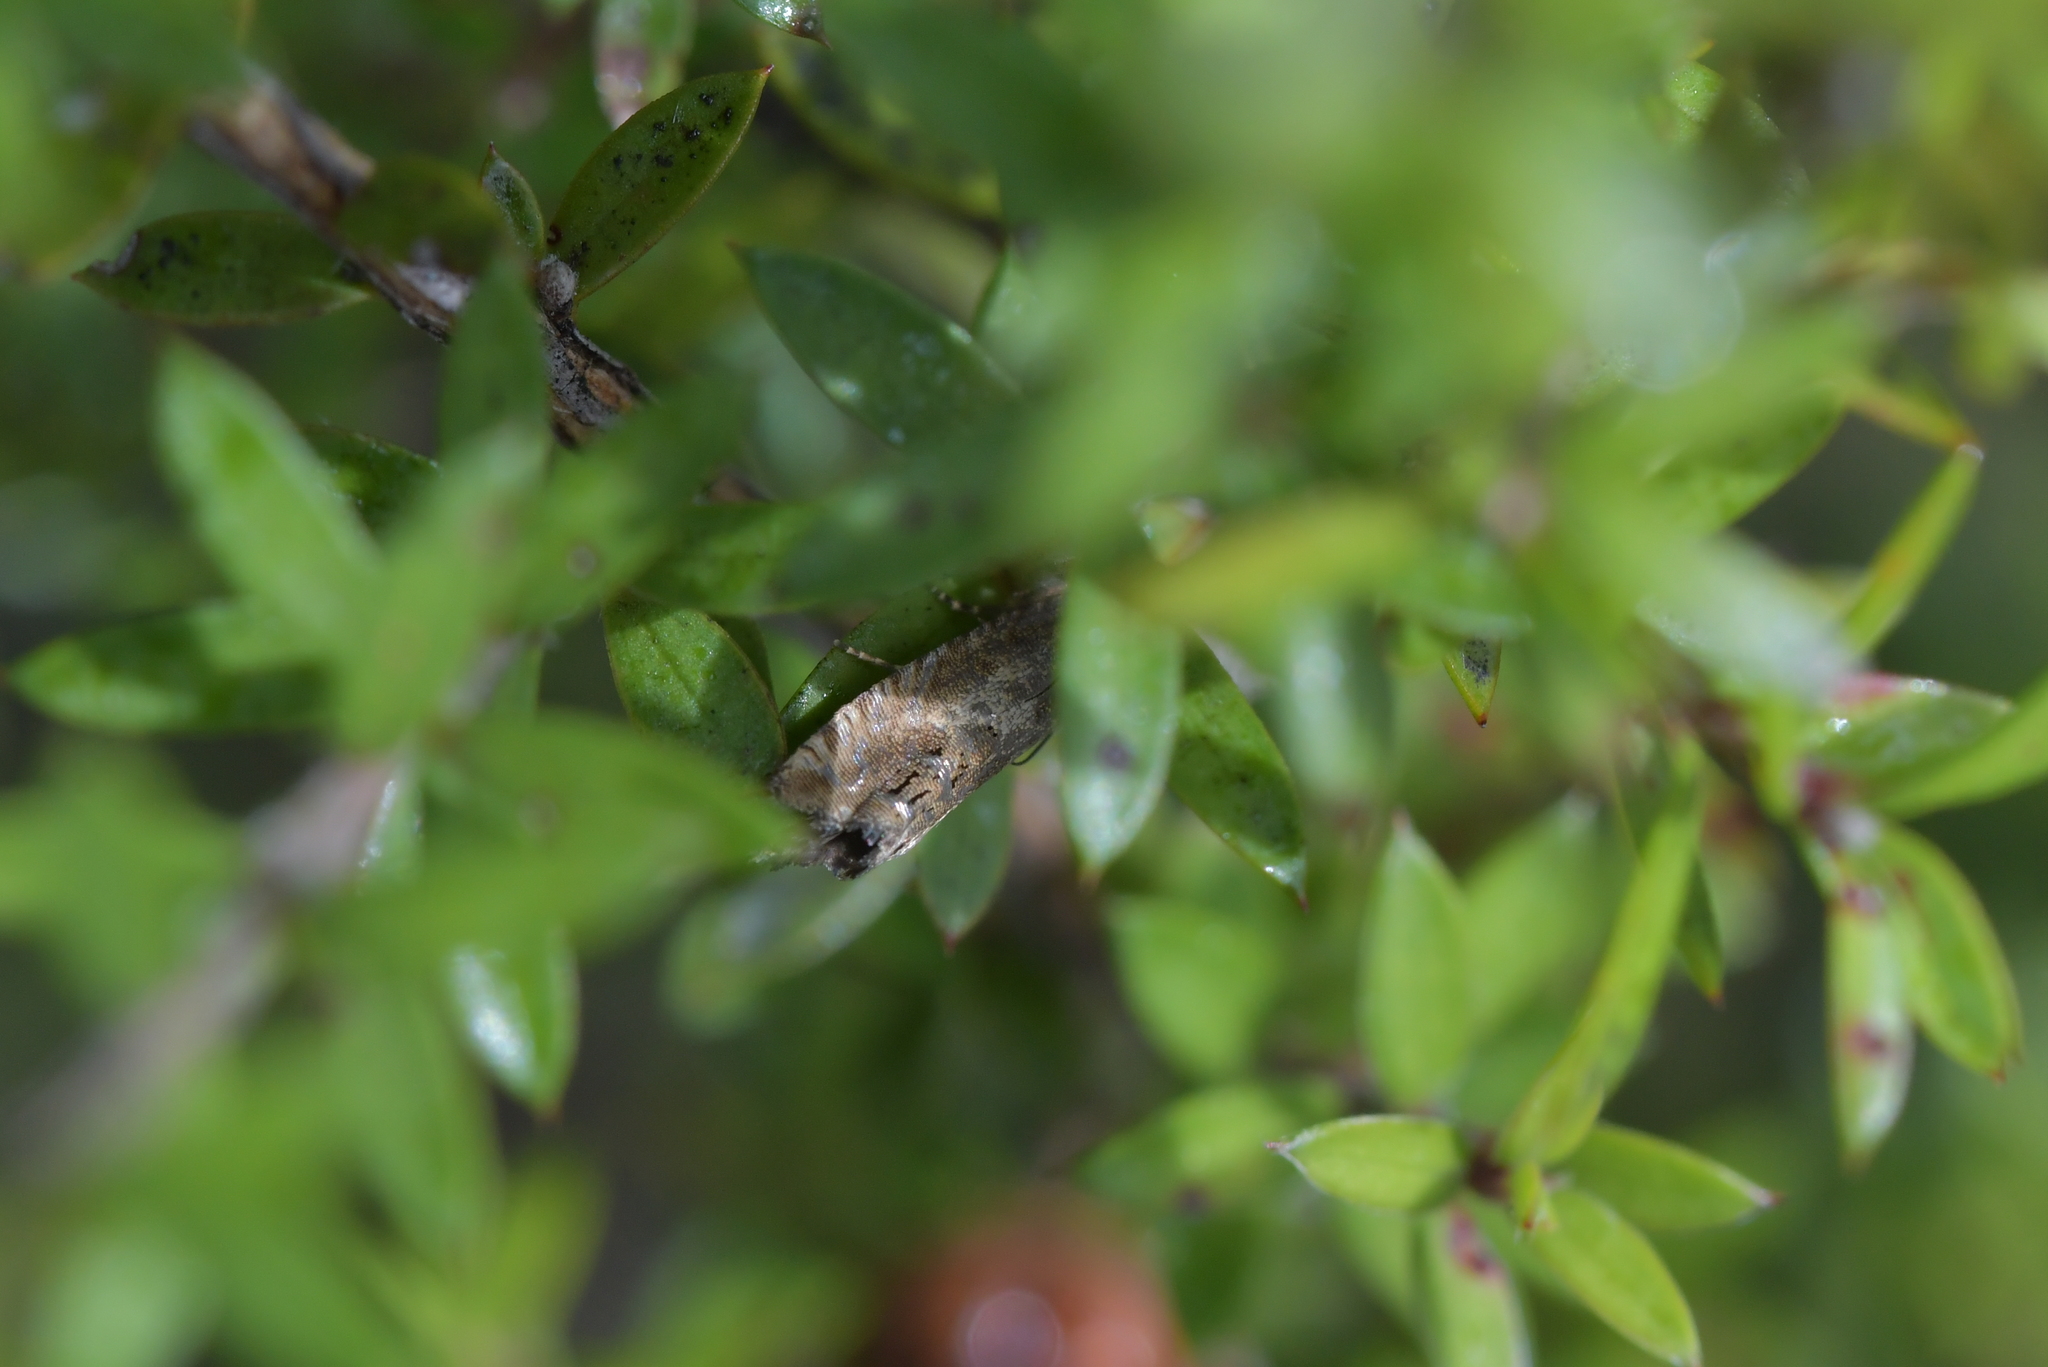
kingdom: Animalia
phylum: Arthropoda
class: Insecta
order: Lepidoptera
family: Tortricidae
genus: Cydia
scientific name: Cydia succedana
